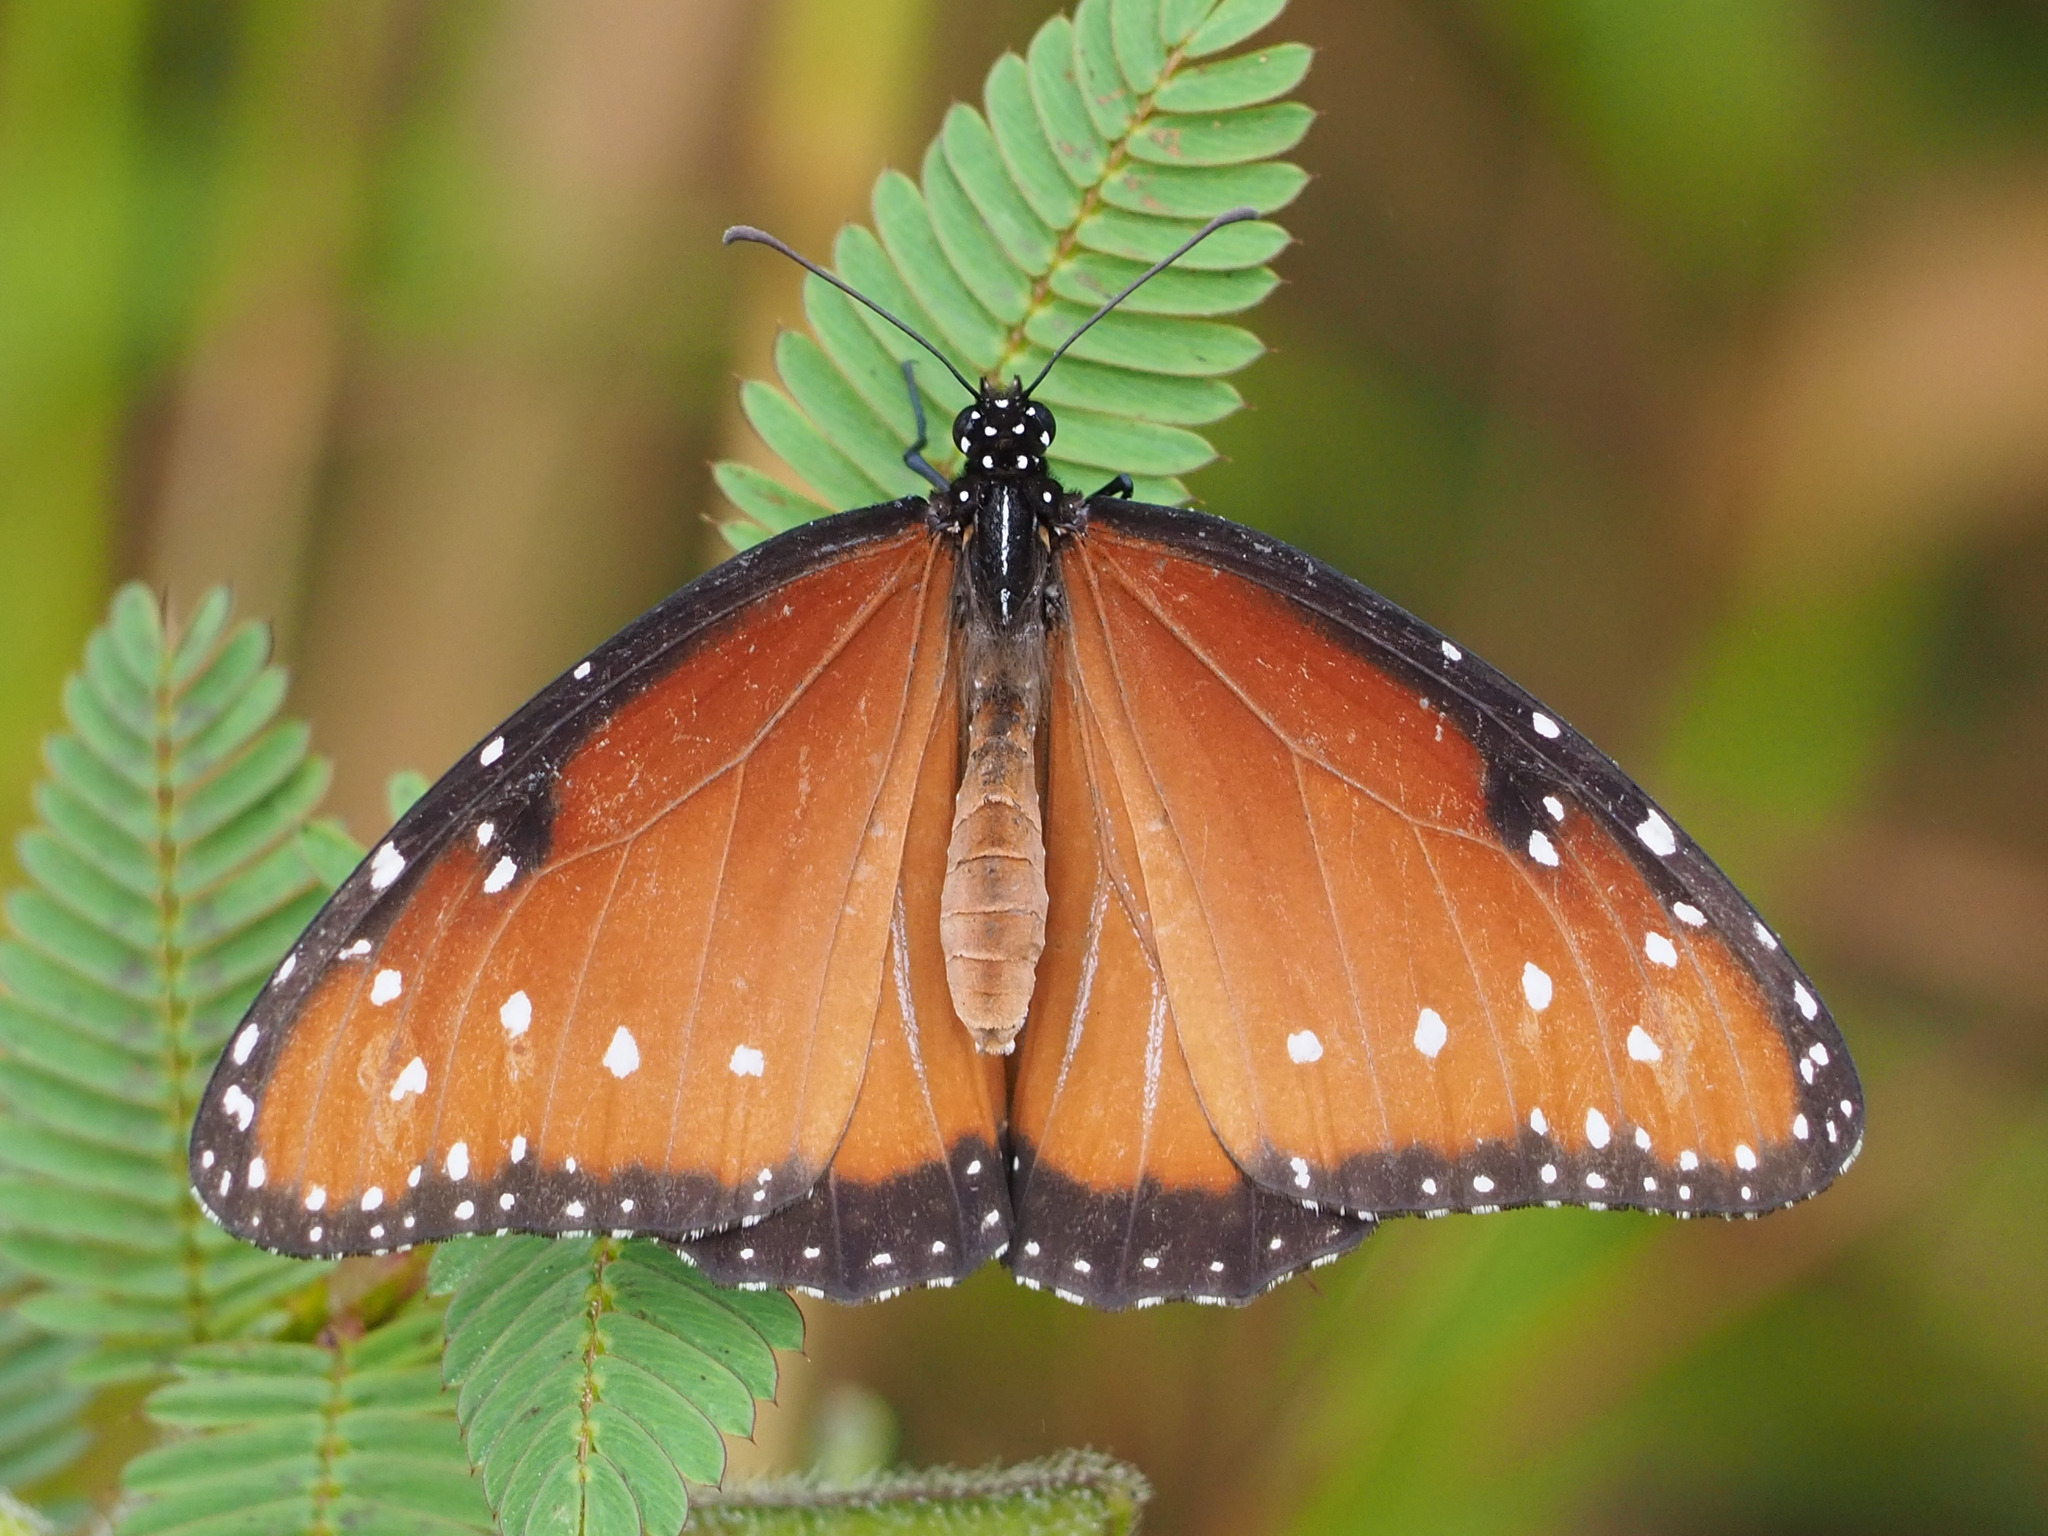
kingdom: Animalia
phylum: Arthropoda
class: Insecta
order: Lepidoptera
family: Nymphalidae
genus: Danaus
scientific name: Danaus gilippus
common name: Queen
